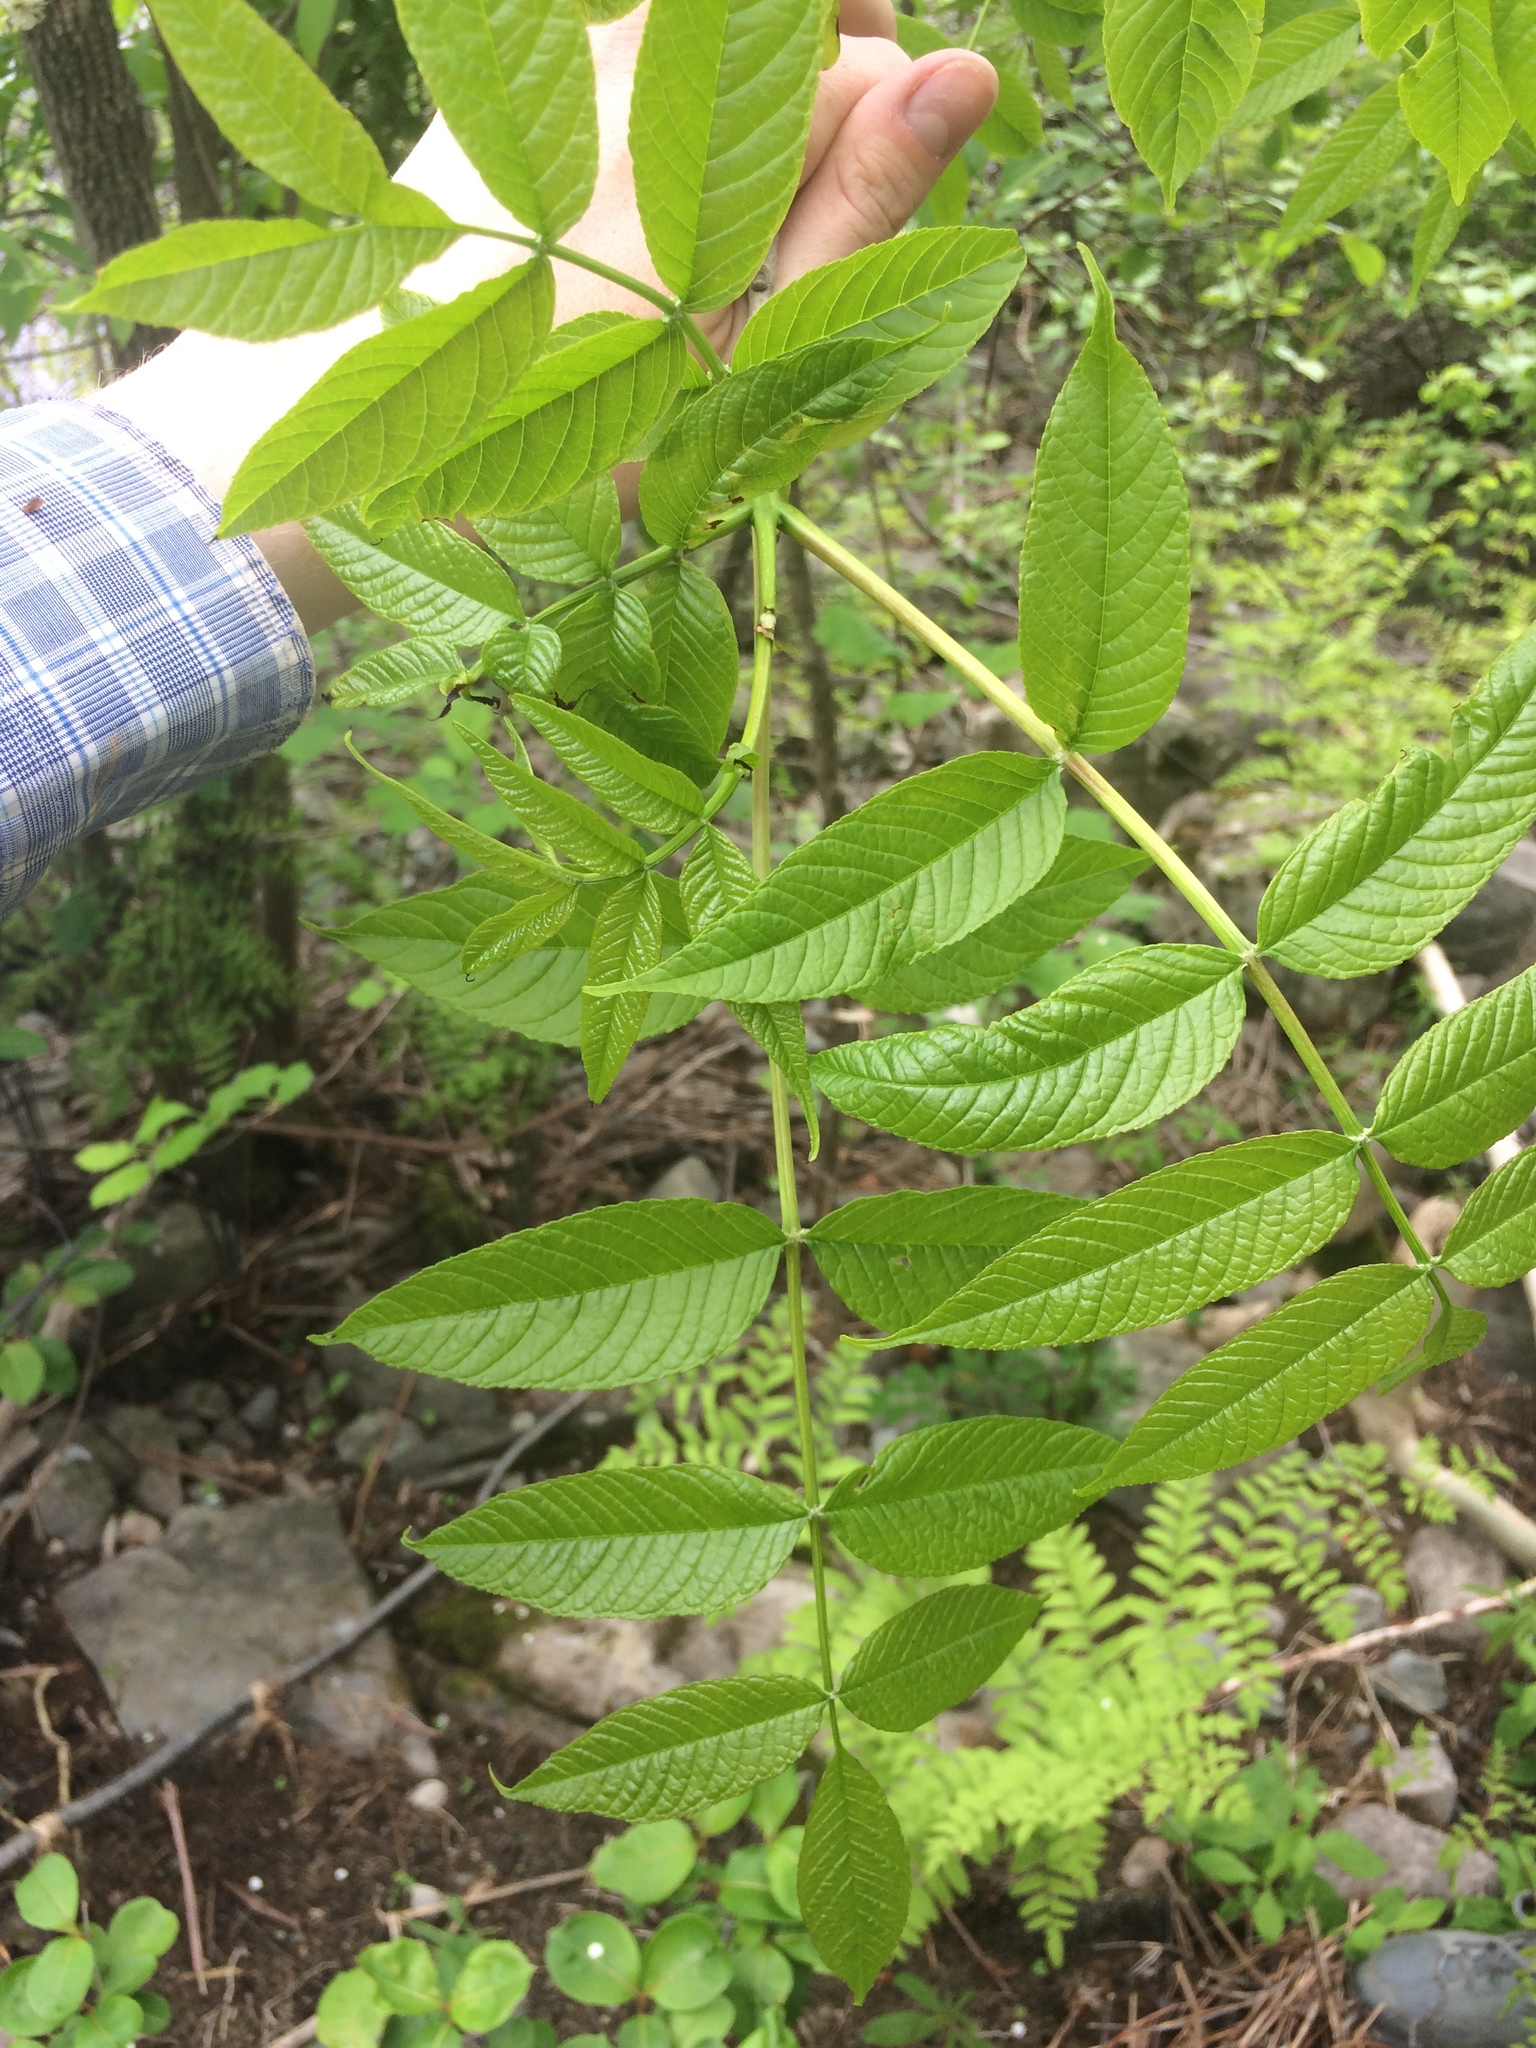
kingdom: Plantae
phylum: Tracheophyta
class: Magnoliopsida
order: Lamiales
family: Oleaceae
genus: Fraxinus
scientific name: Fraxinus nigra
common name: Black ash
